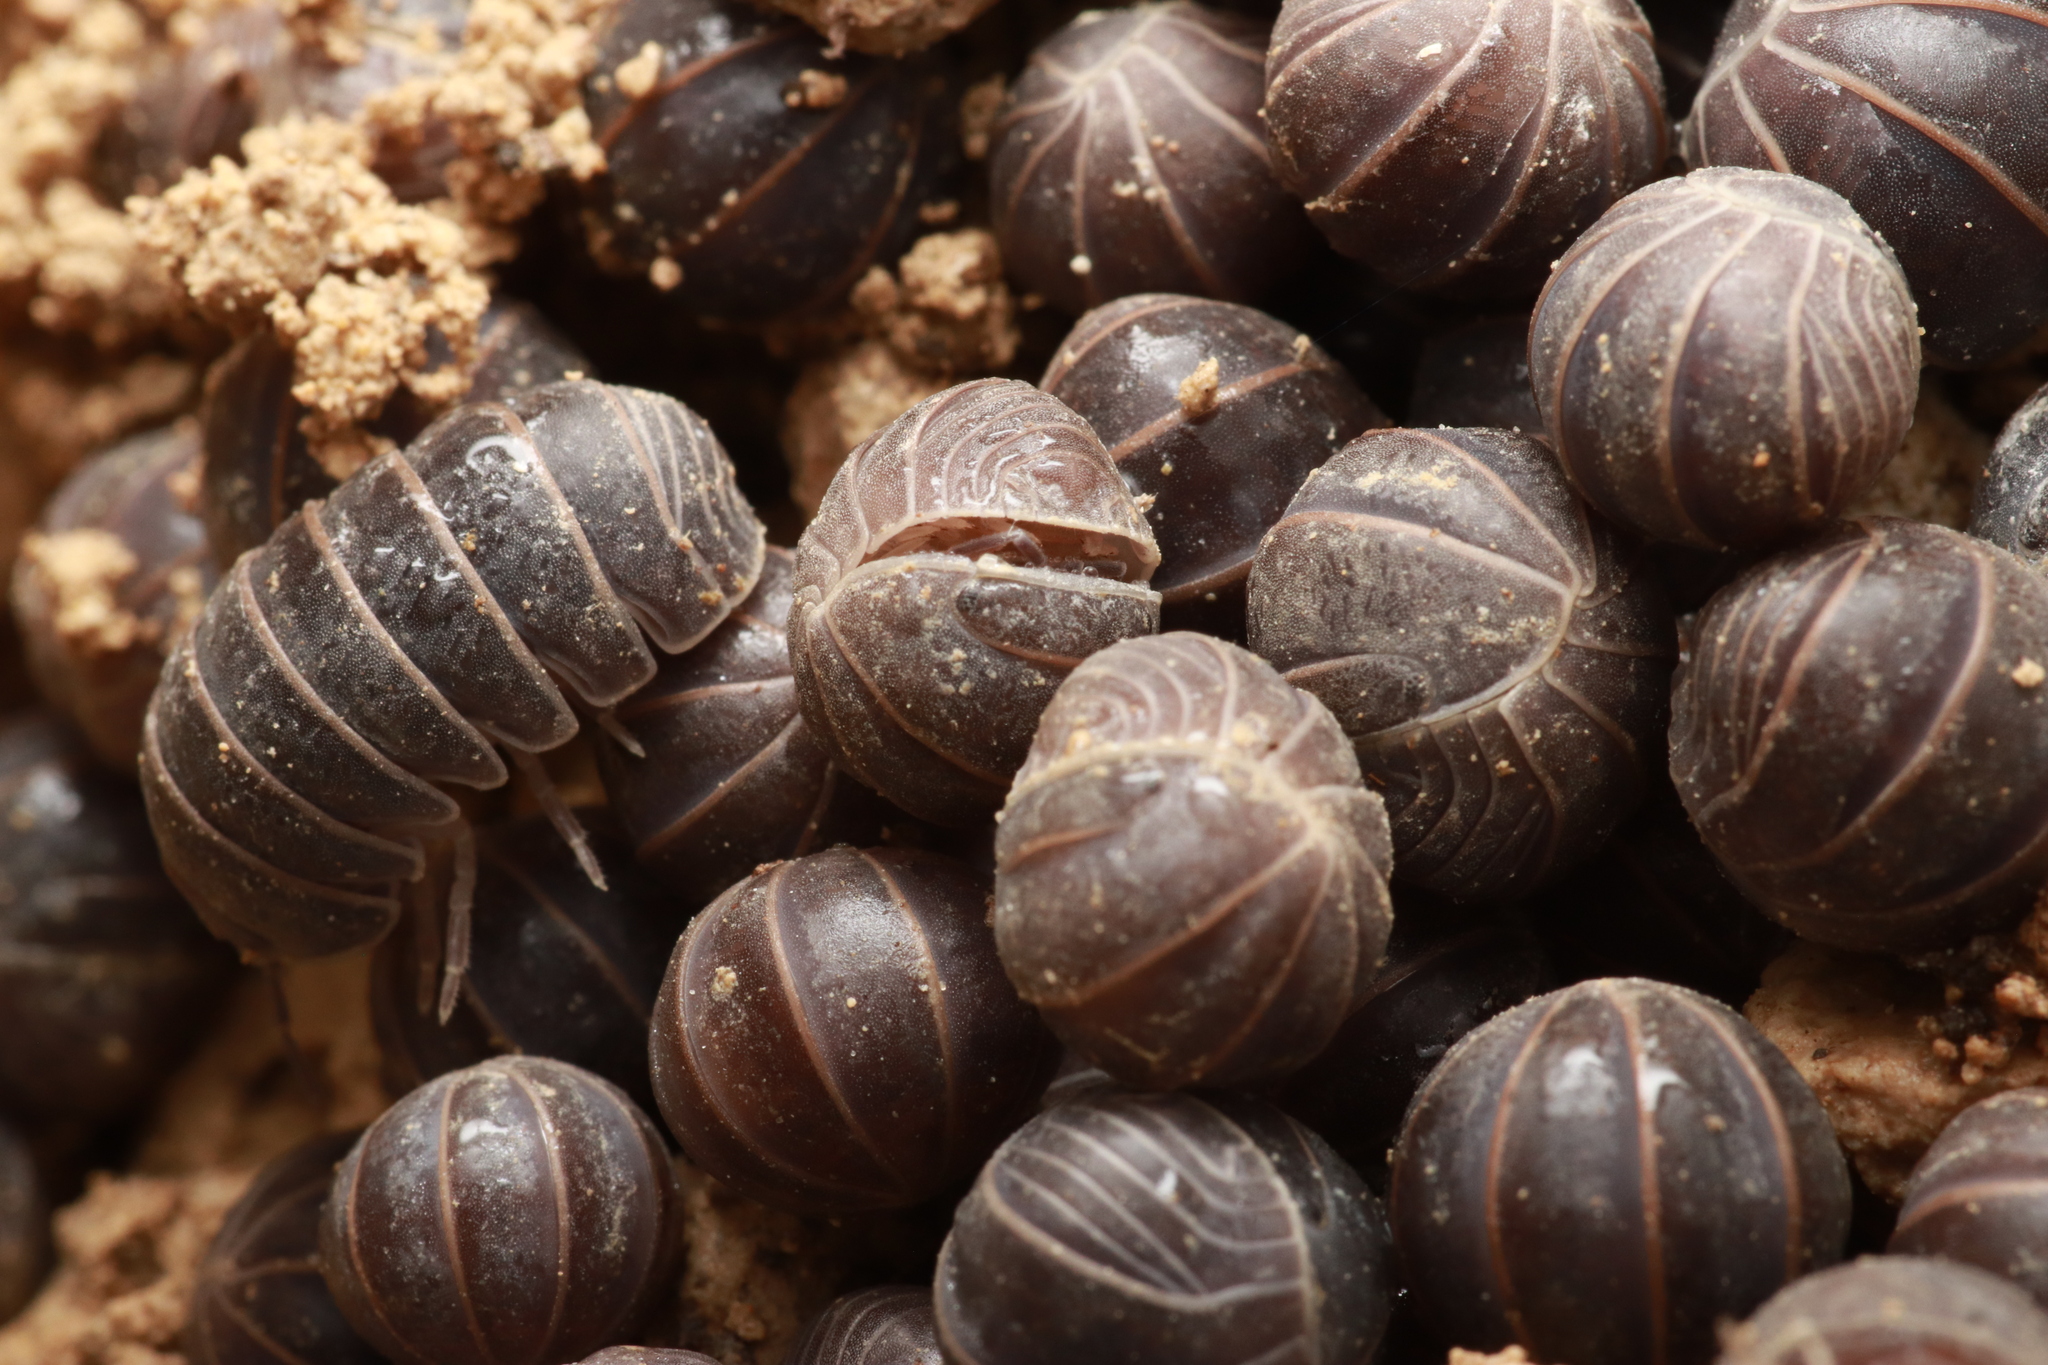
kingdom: Animalia
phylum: Arthropoda
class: Malacostraca
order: Isopoda
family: Armadillidae
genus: Armadillo
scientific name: Armadillo officinalis
